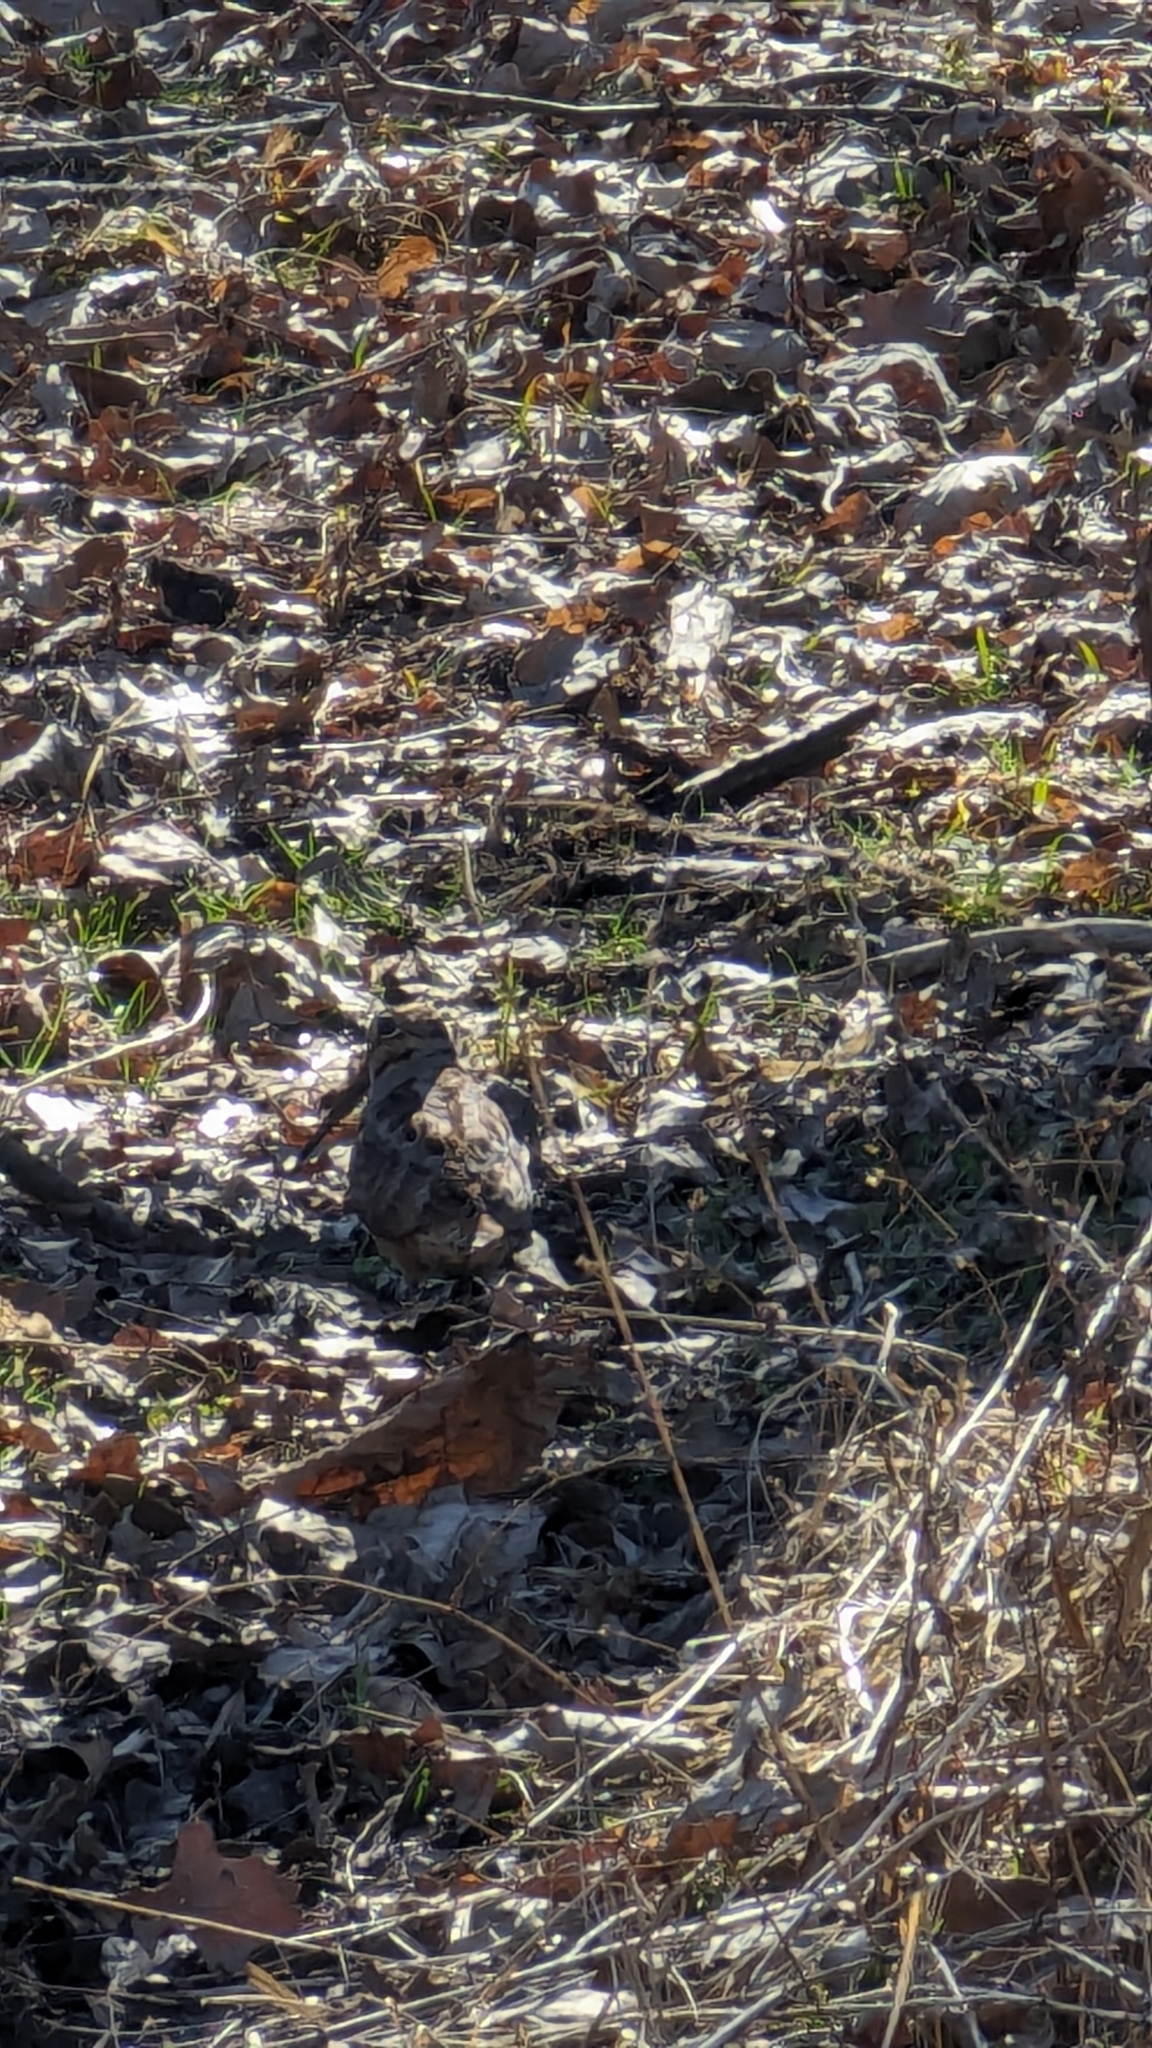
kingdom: Animalia
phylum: Chordata
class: Aves
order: Charadriiformes
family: Scolopacidae
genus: Scolopax
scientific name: Scolopax minor
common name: American woodcock
